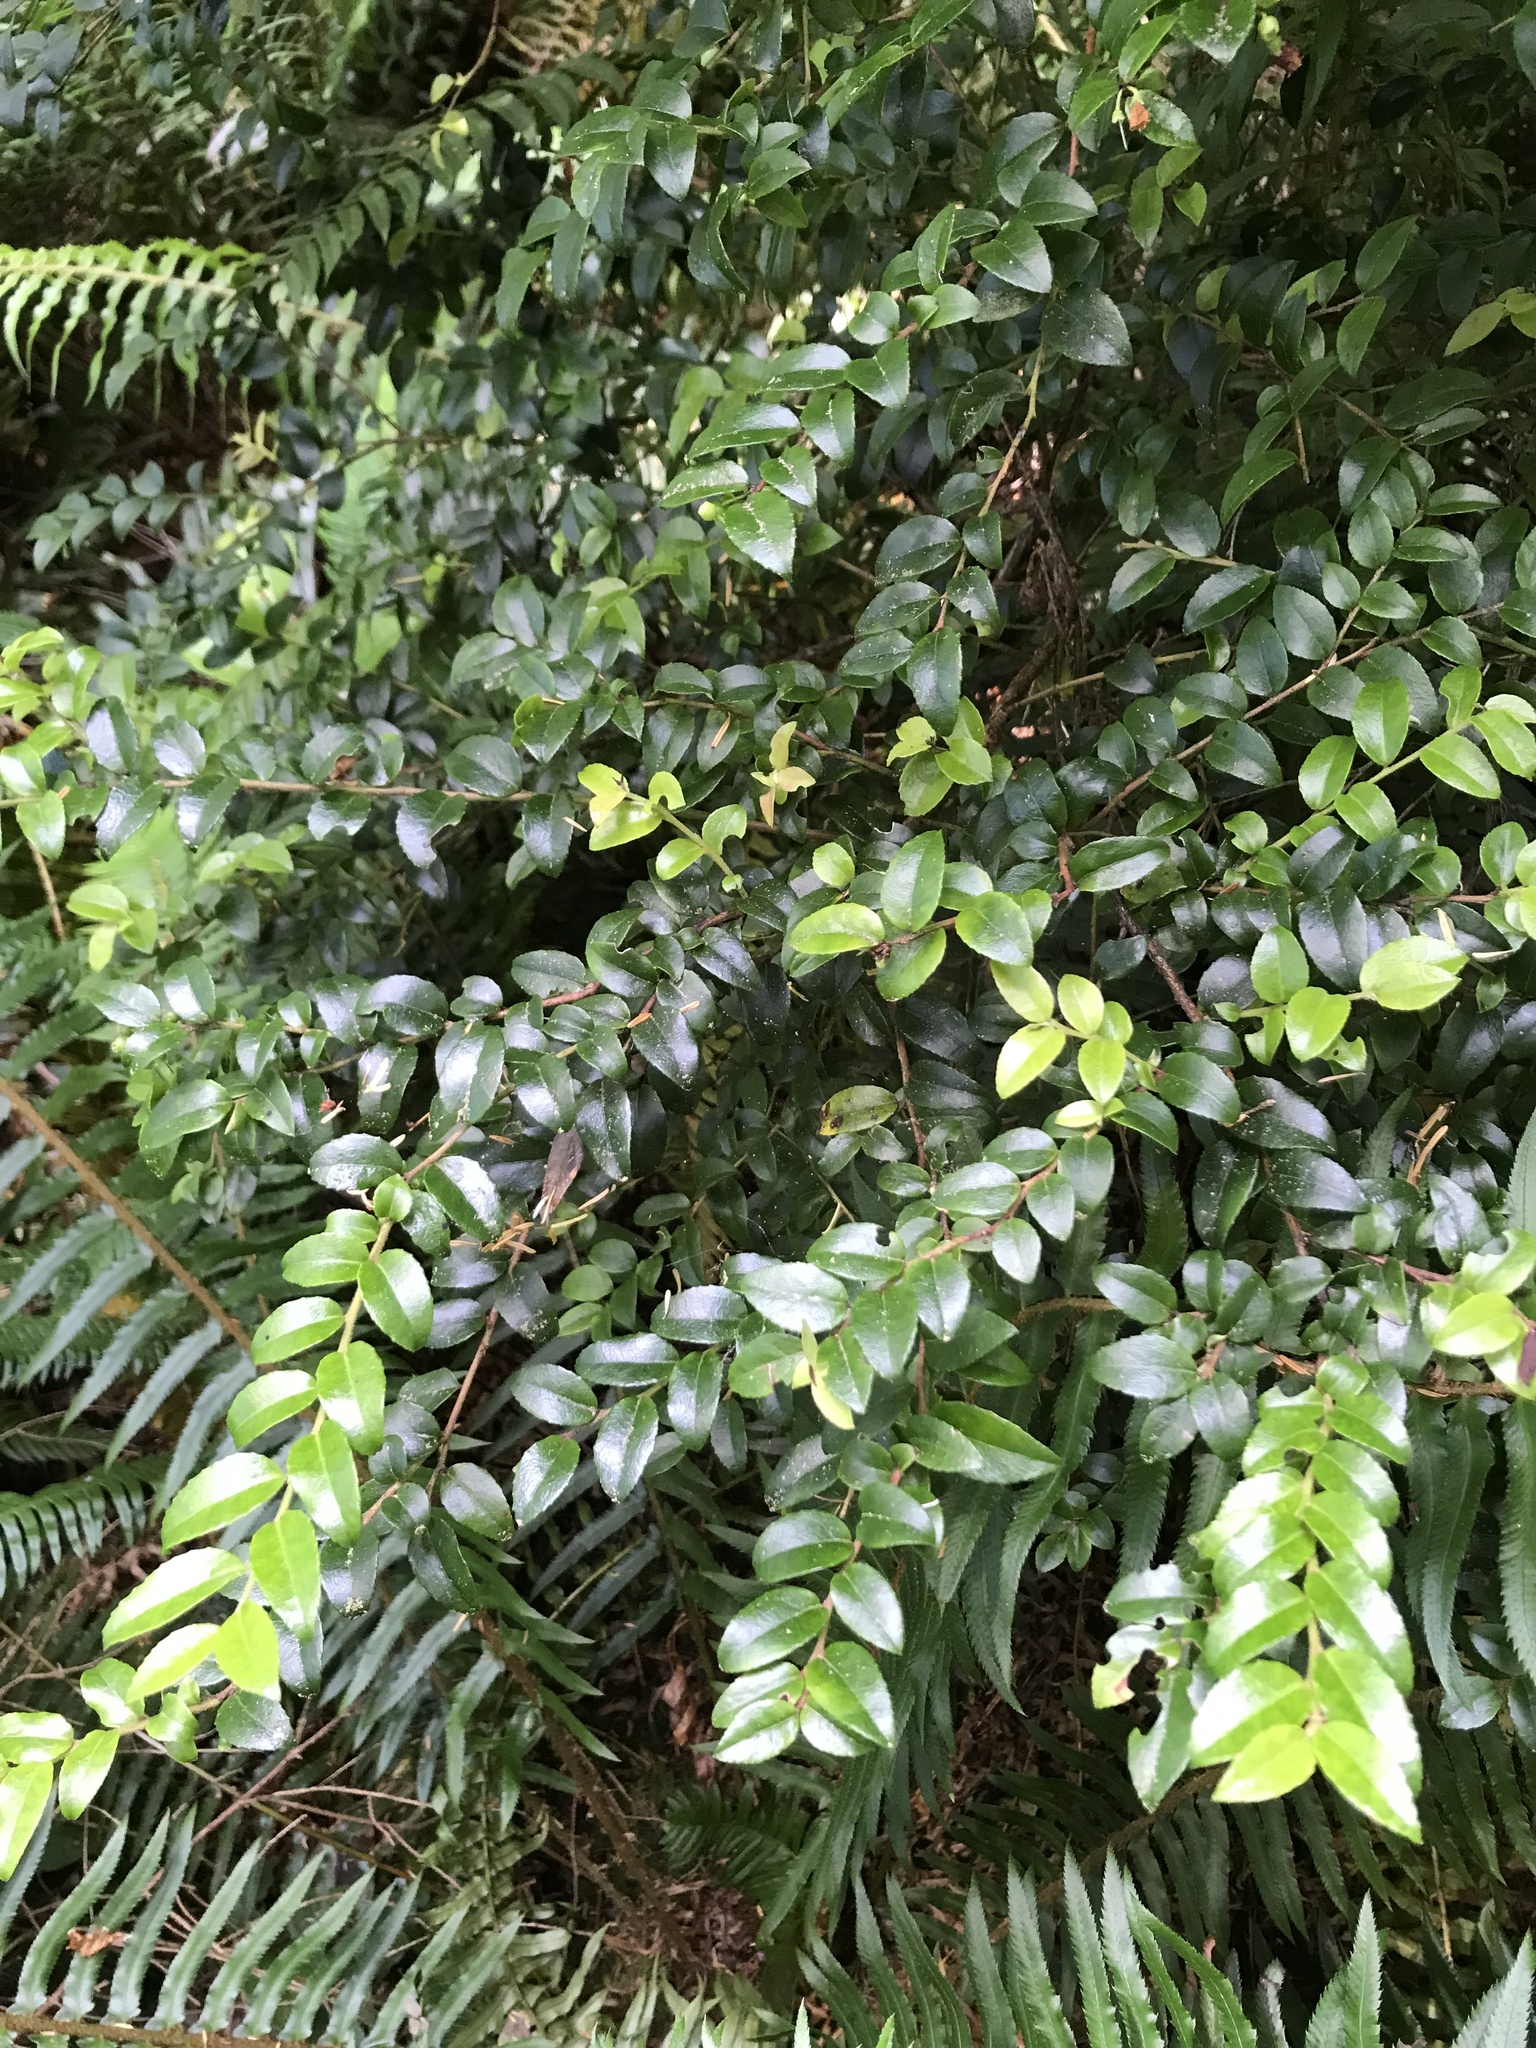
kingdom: Plantae
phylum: Tracheophyta
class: Magnoliopsida
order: Ericales
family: Ericaceae
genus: Vaccinium
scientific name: Vaccinium ovatum
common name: California-huckleberry
